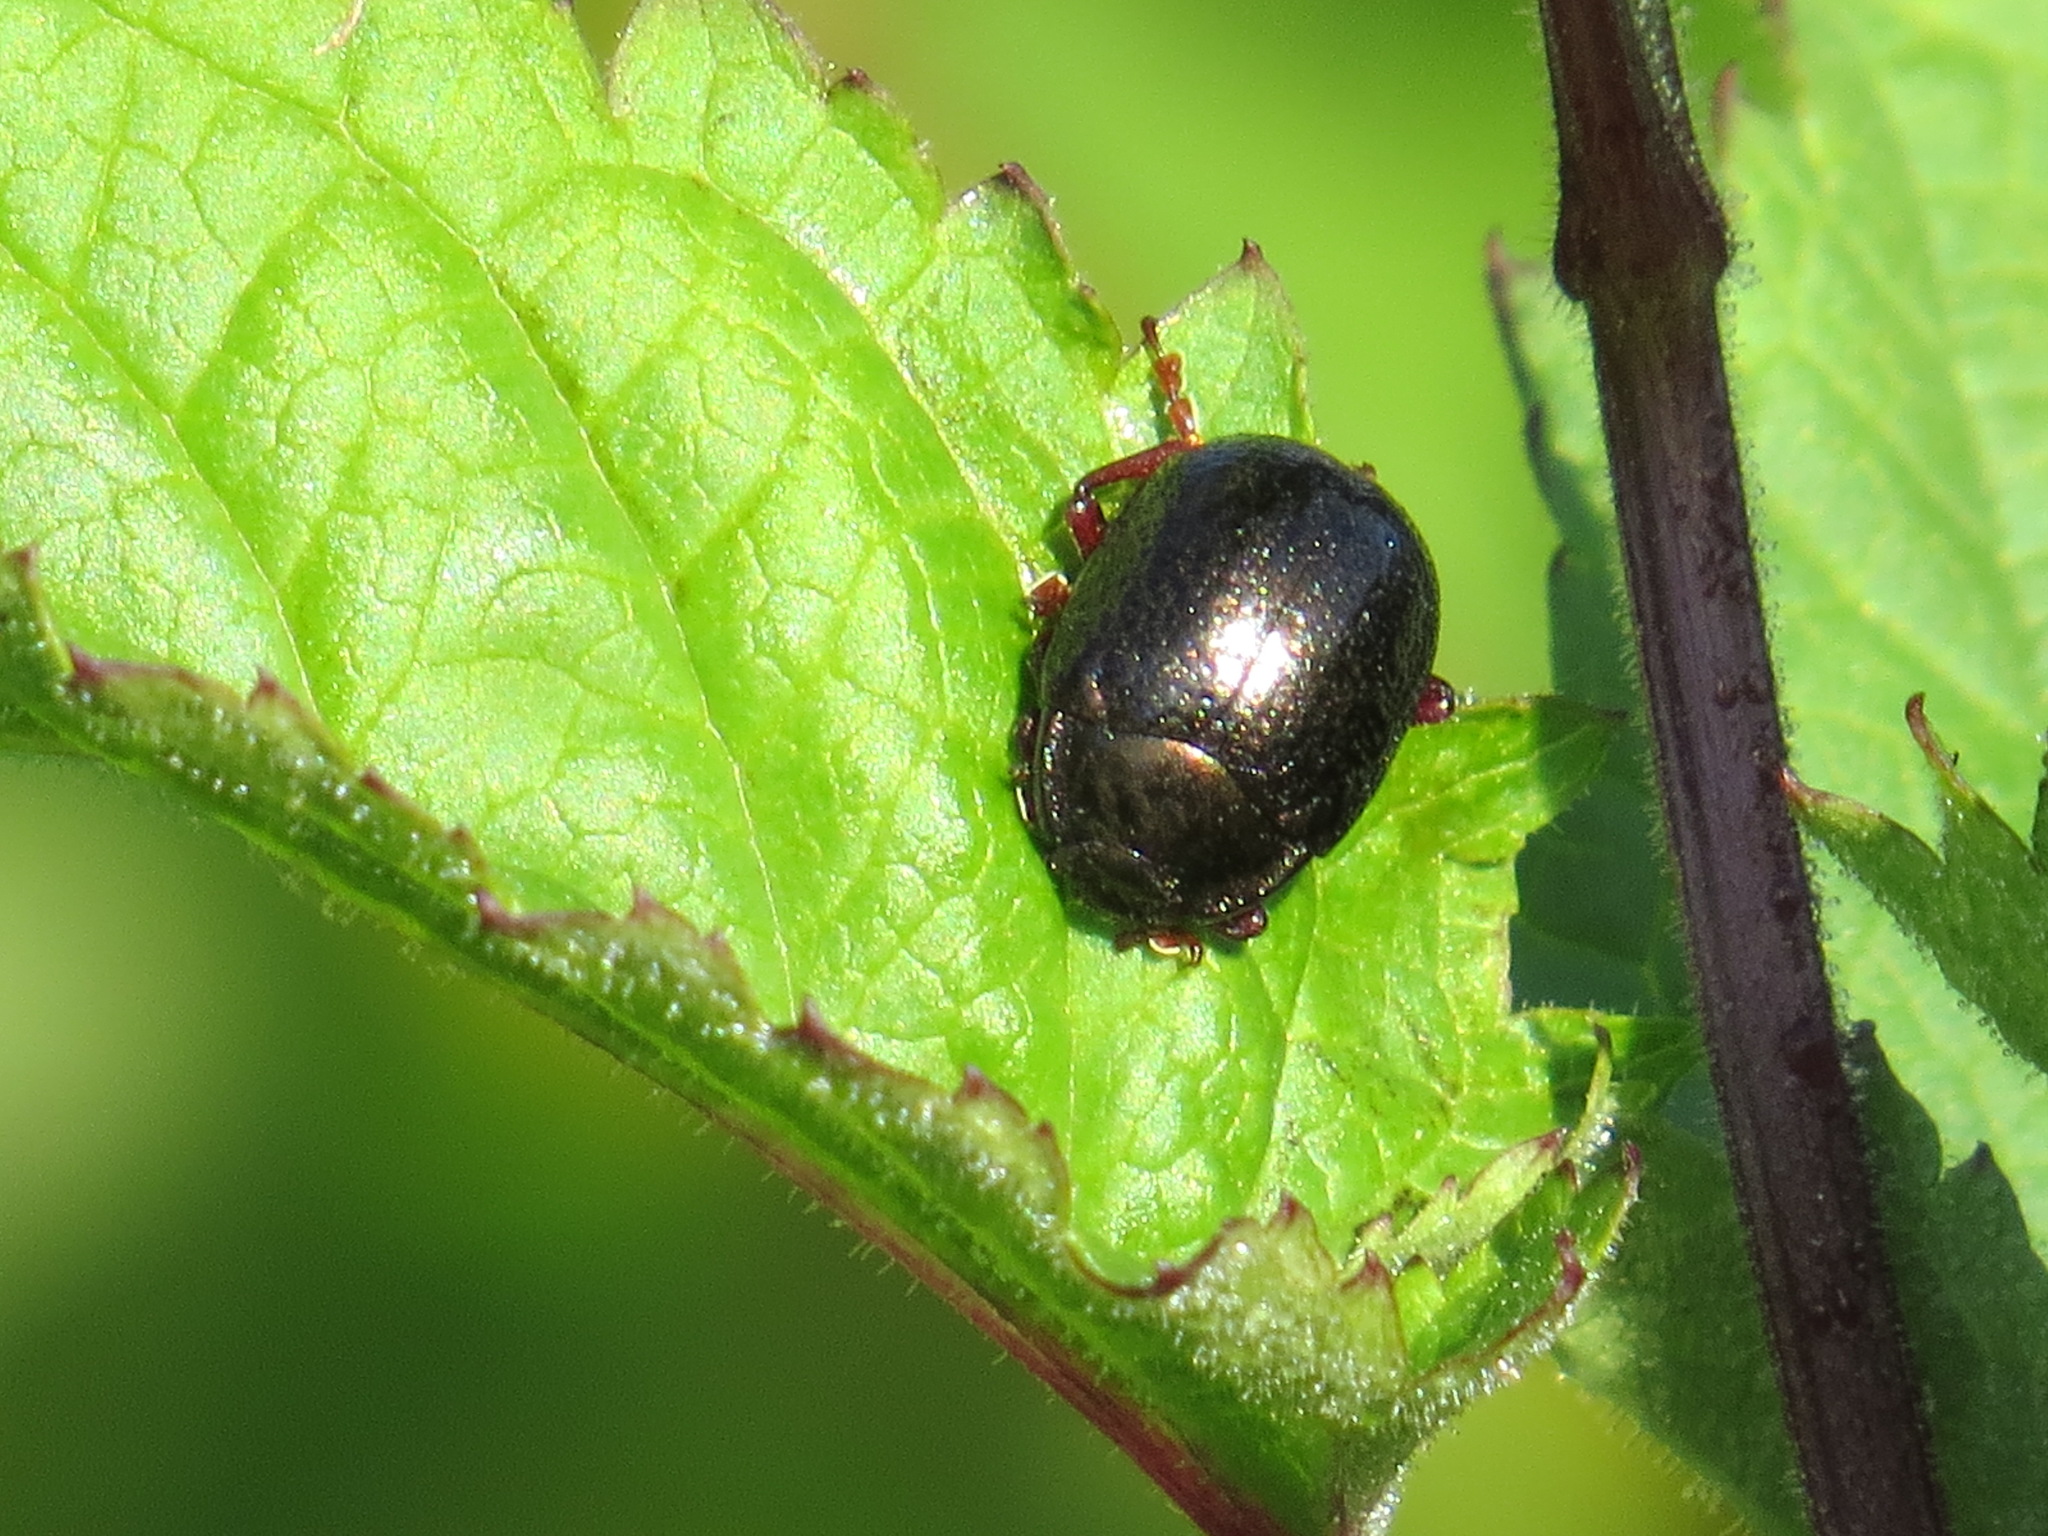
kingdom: Animalia
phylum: Arthropoda
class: Insecta
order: Coleoptera
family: Chrysomelidae
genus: Chrysolina
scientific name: Chrysolina bankii
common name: Leaf beetle
